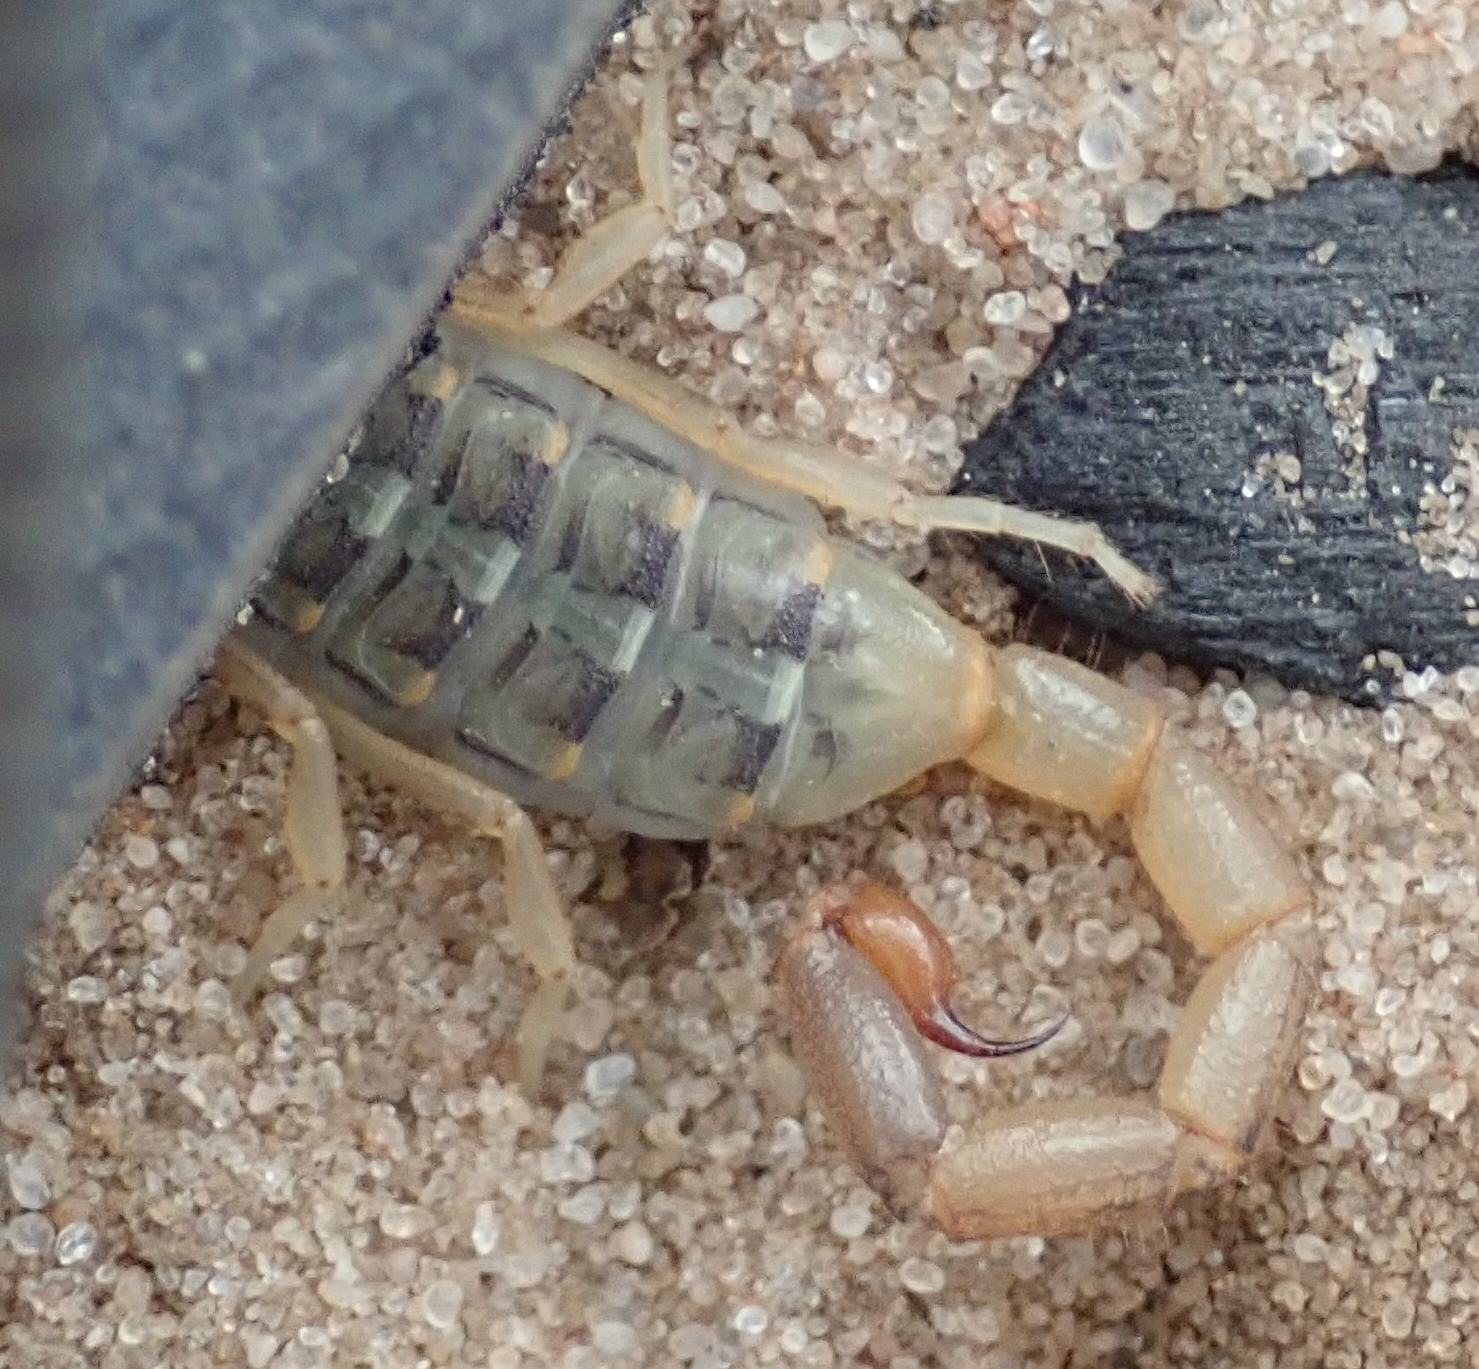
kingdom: Animalia
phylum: Arthropoda
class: Arachnida
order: Scorpiones
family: Buthidae
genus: Uroplectes
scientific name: Uroplectes vittatus
